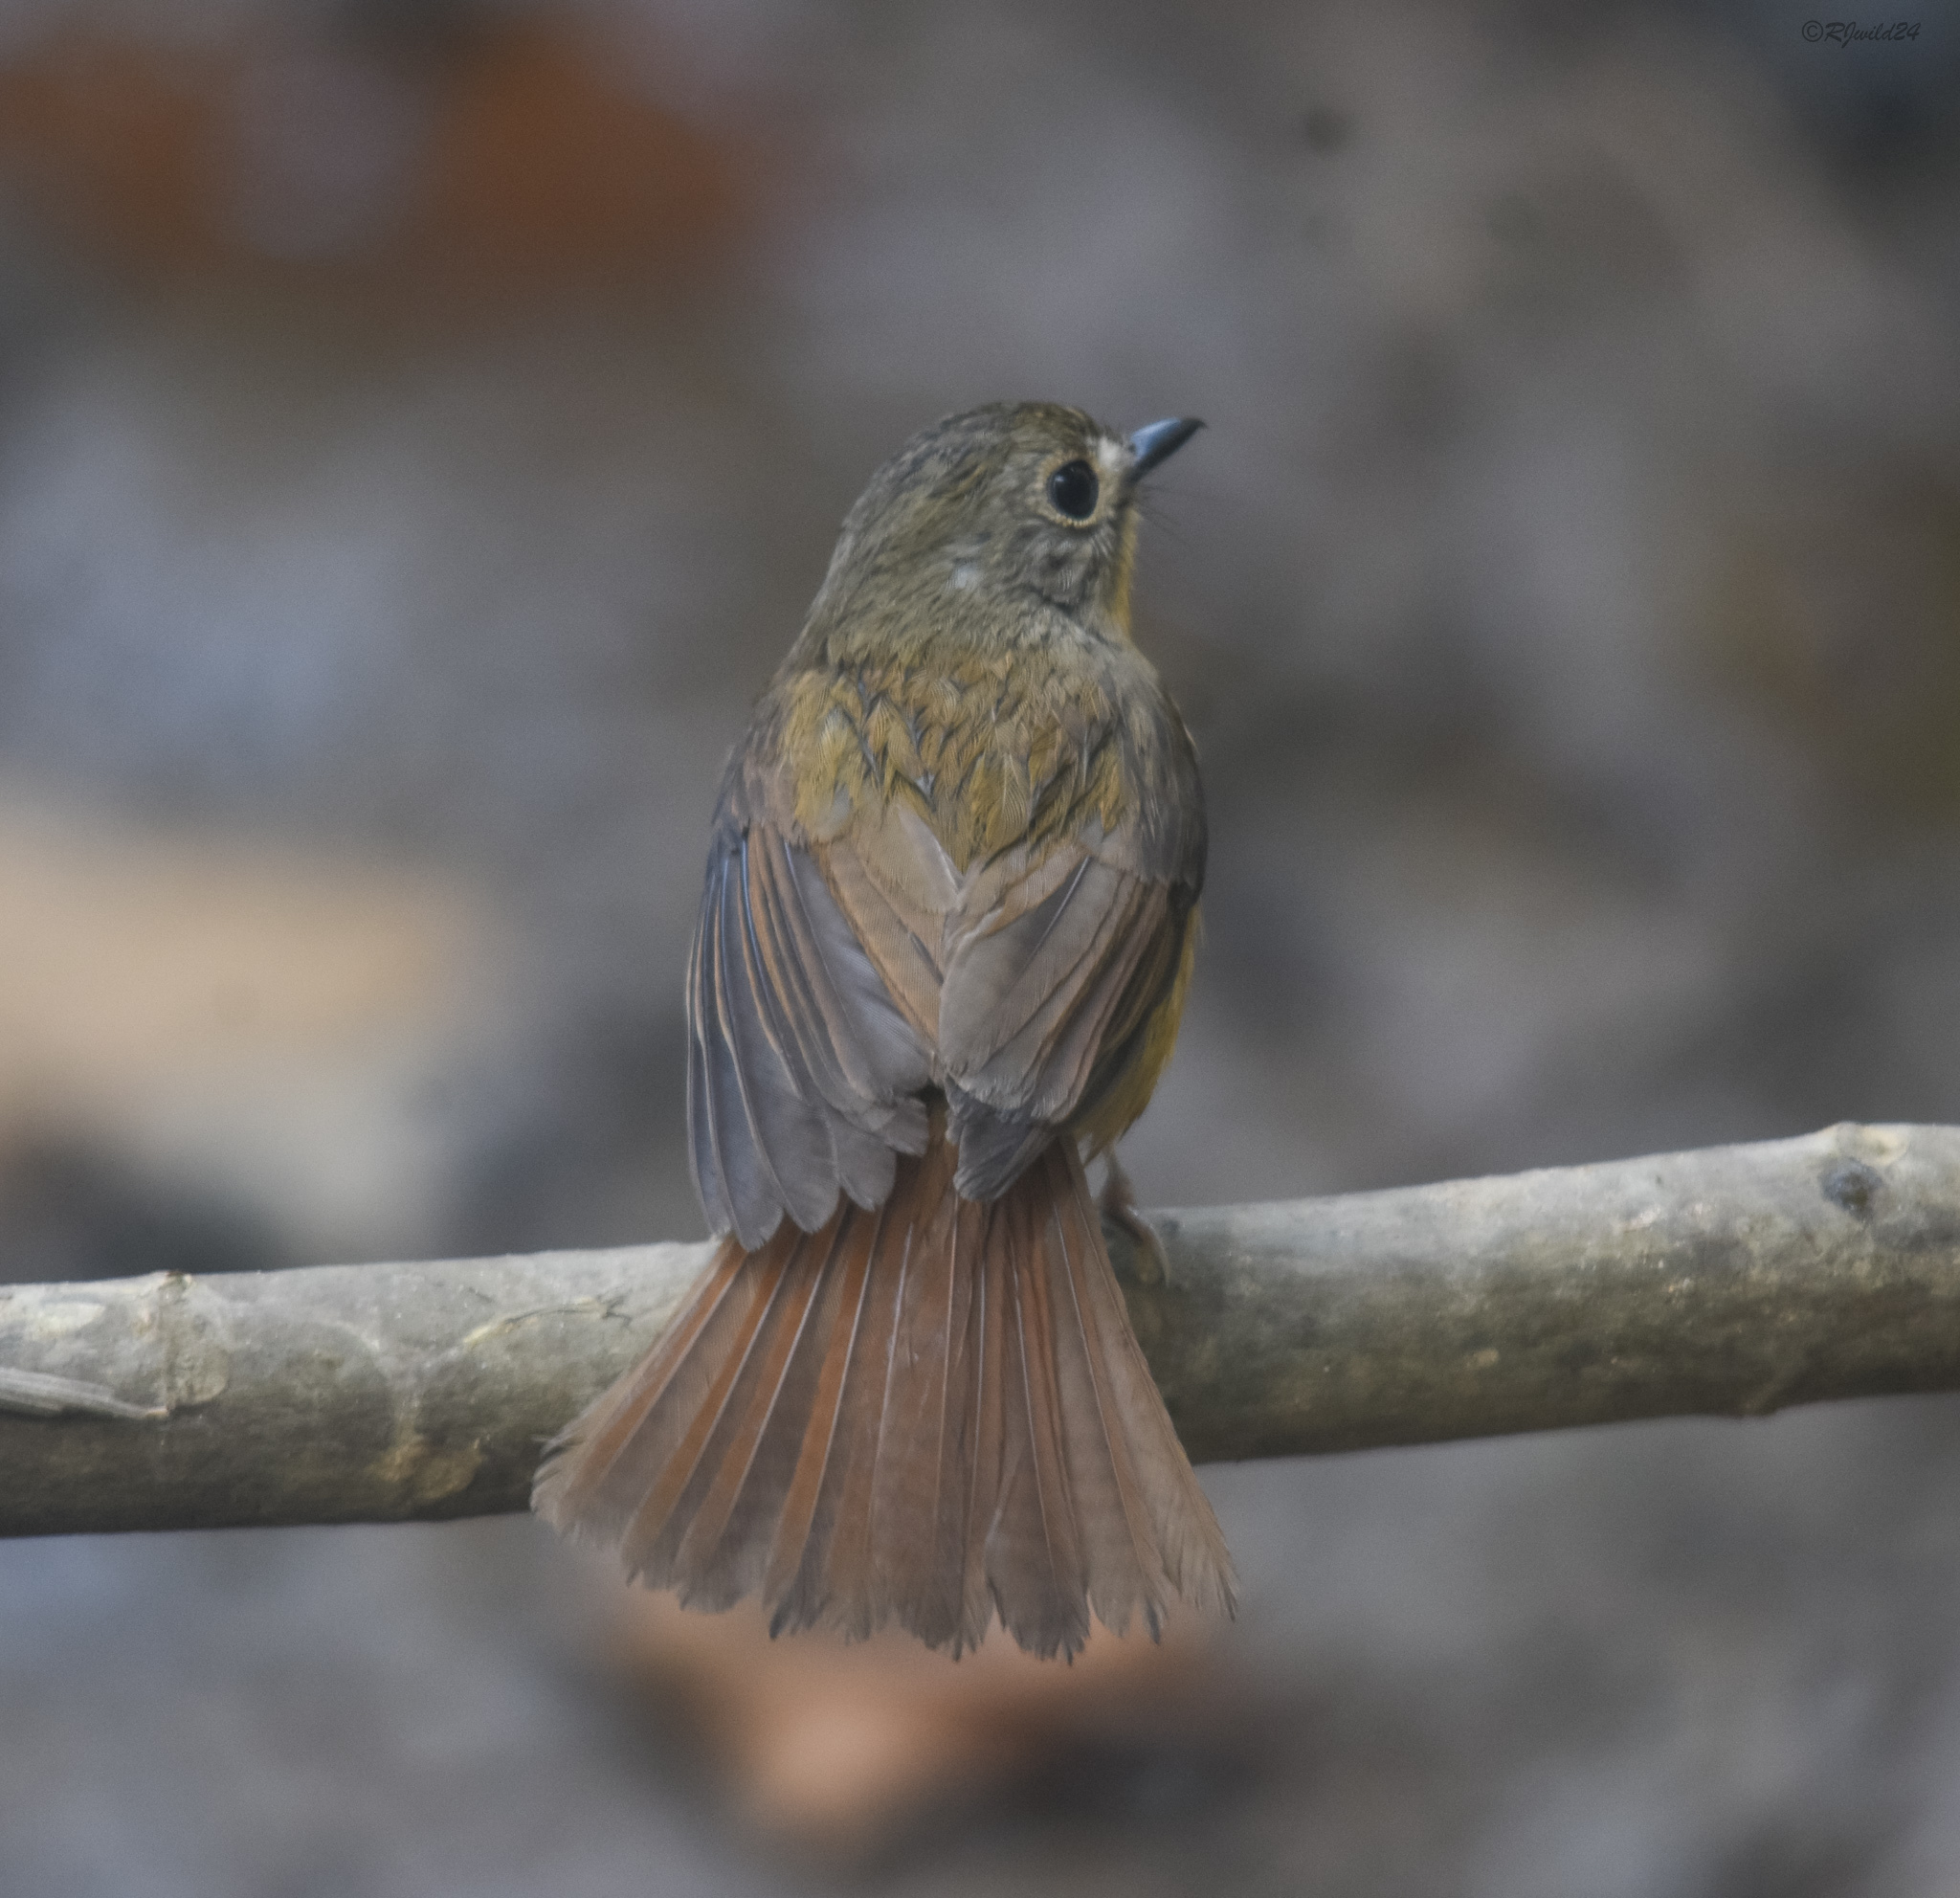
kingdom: Animalia
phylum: Chordata
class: Aves
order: Passeriformes
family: Muscicapidae
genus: Cyornis
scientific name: Cyornis poliogenys
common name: Pale-chinned blue flycatcher
